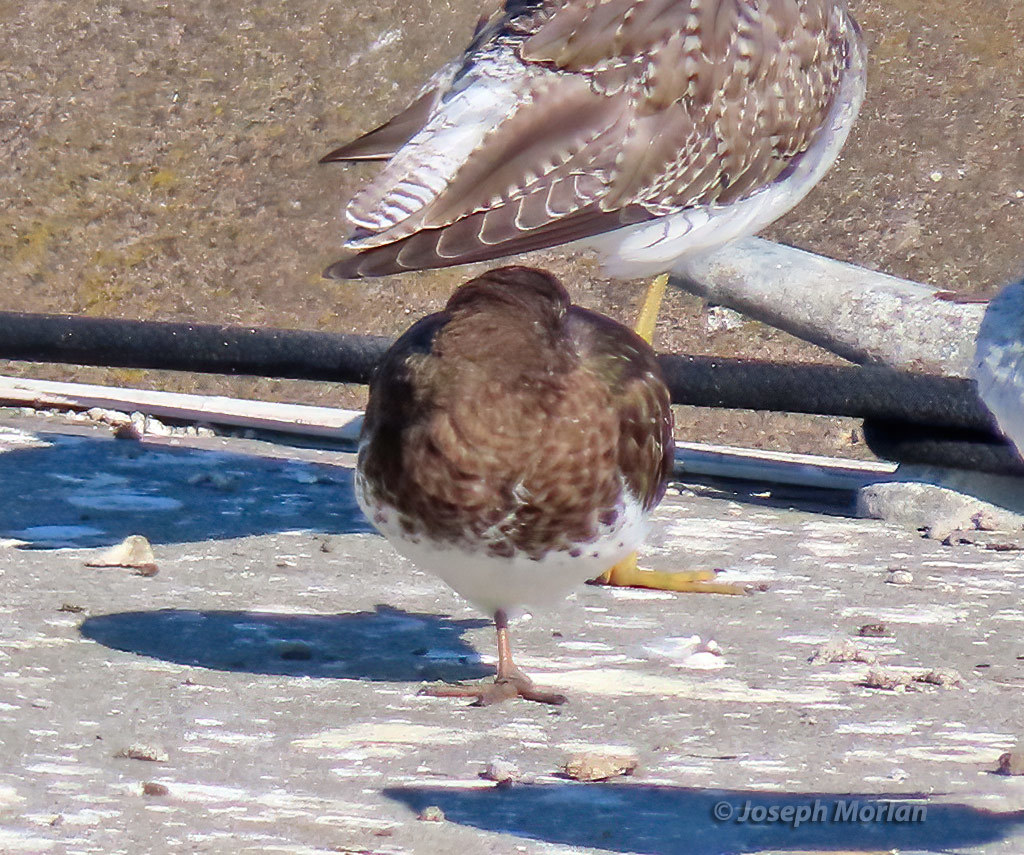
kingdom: Animalia
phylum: Chordata
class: Aves
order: Charadriiformes
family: Scolopacidae
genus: Arenaria
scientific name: Arenaria melanocephala
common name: Black turnstone
